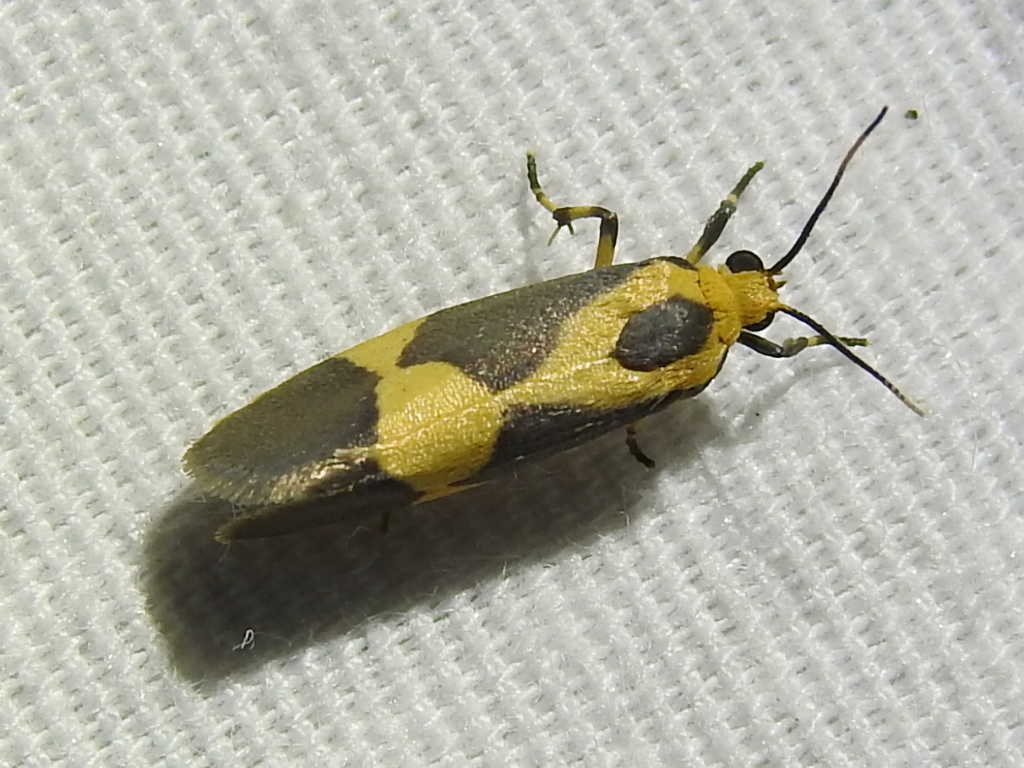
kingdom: Animalia
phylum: Arthropoda
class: Insecta
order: Lepidoptera
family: Erebidae
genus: Cisthene
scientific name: Cisthene unifascia
